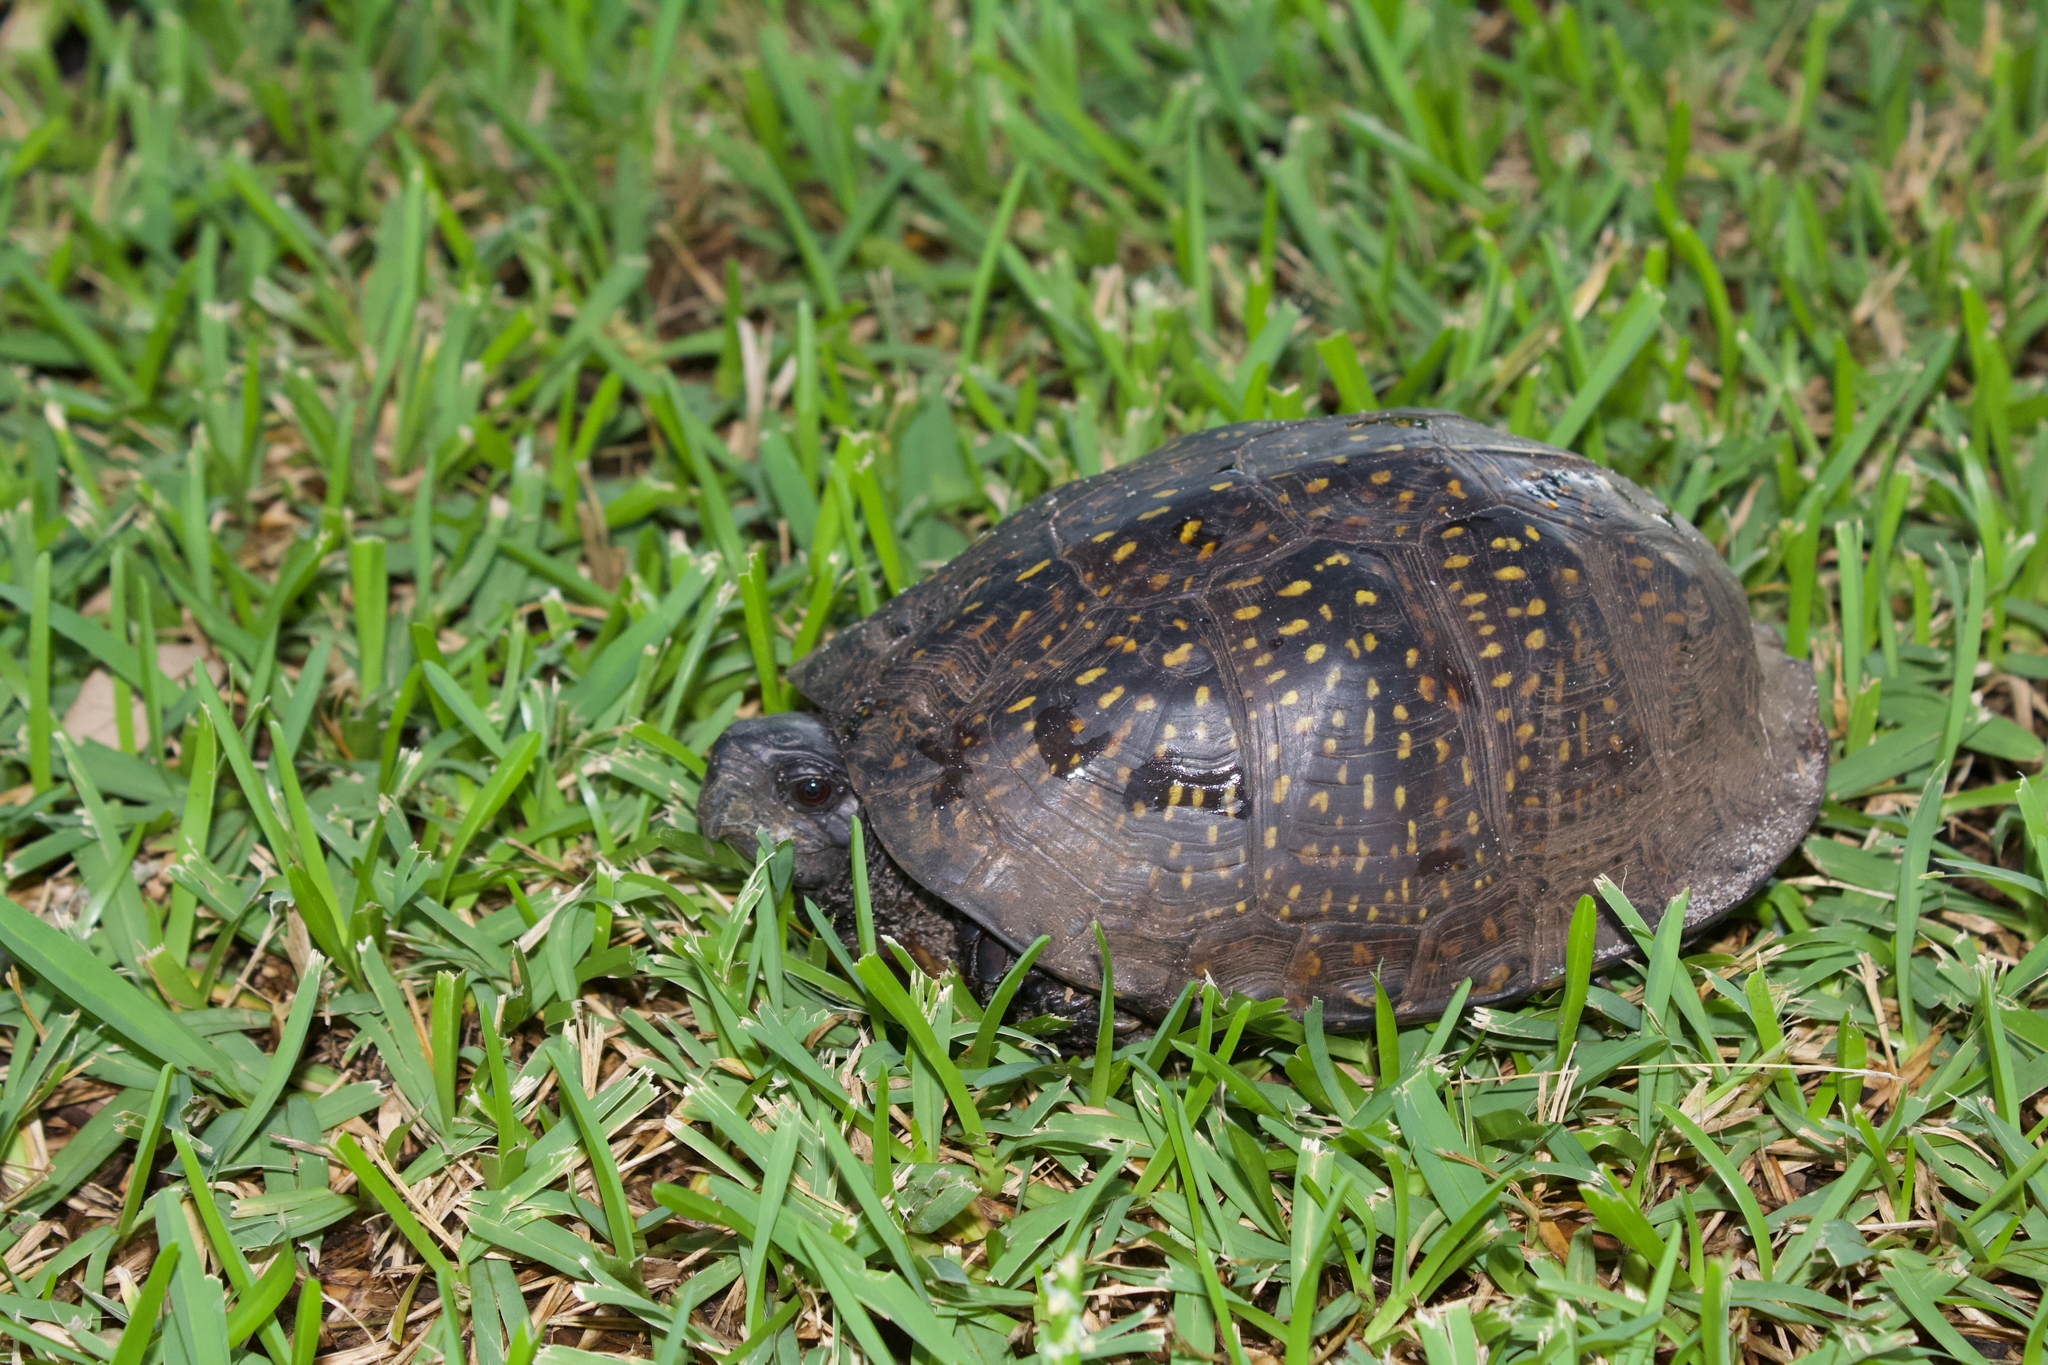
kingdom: Animalia
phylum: Chordata
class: Testudines
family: Emydidae
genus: Terrapene
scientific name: Terrapene carolina
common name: Common box turtle
